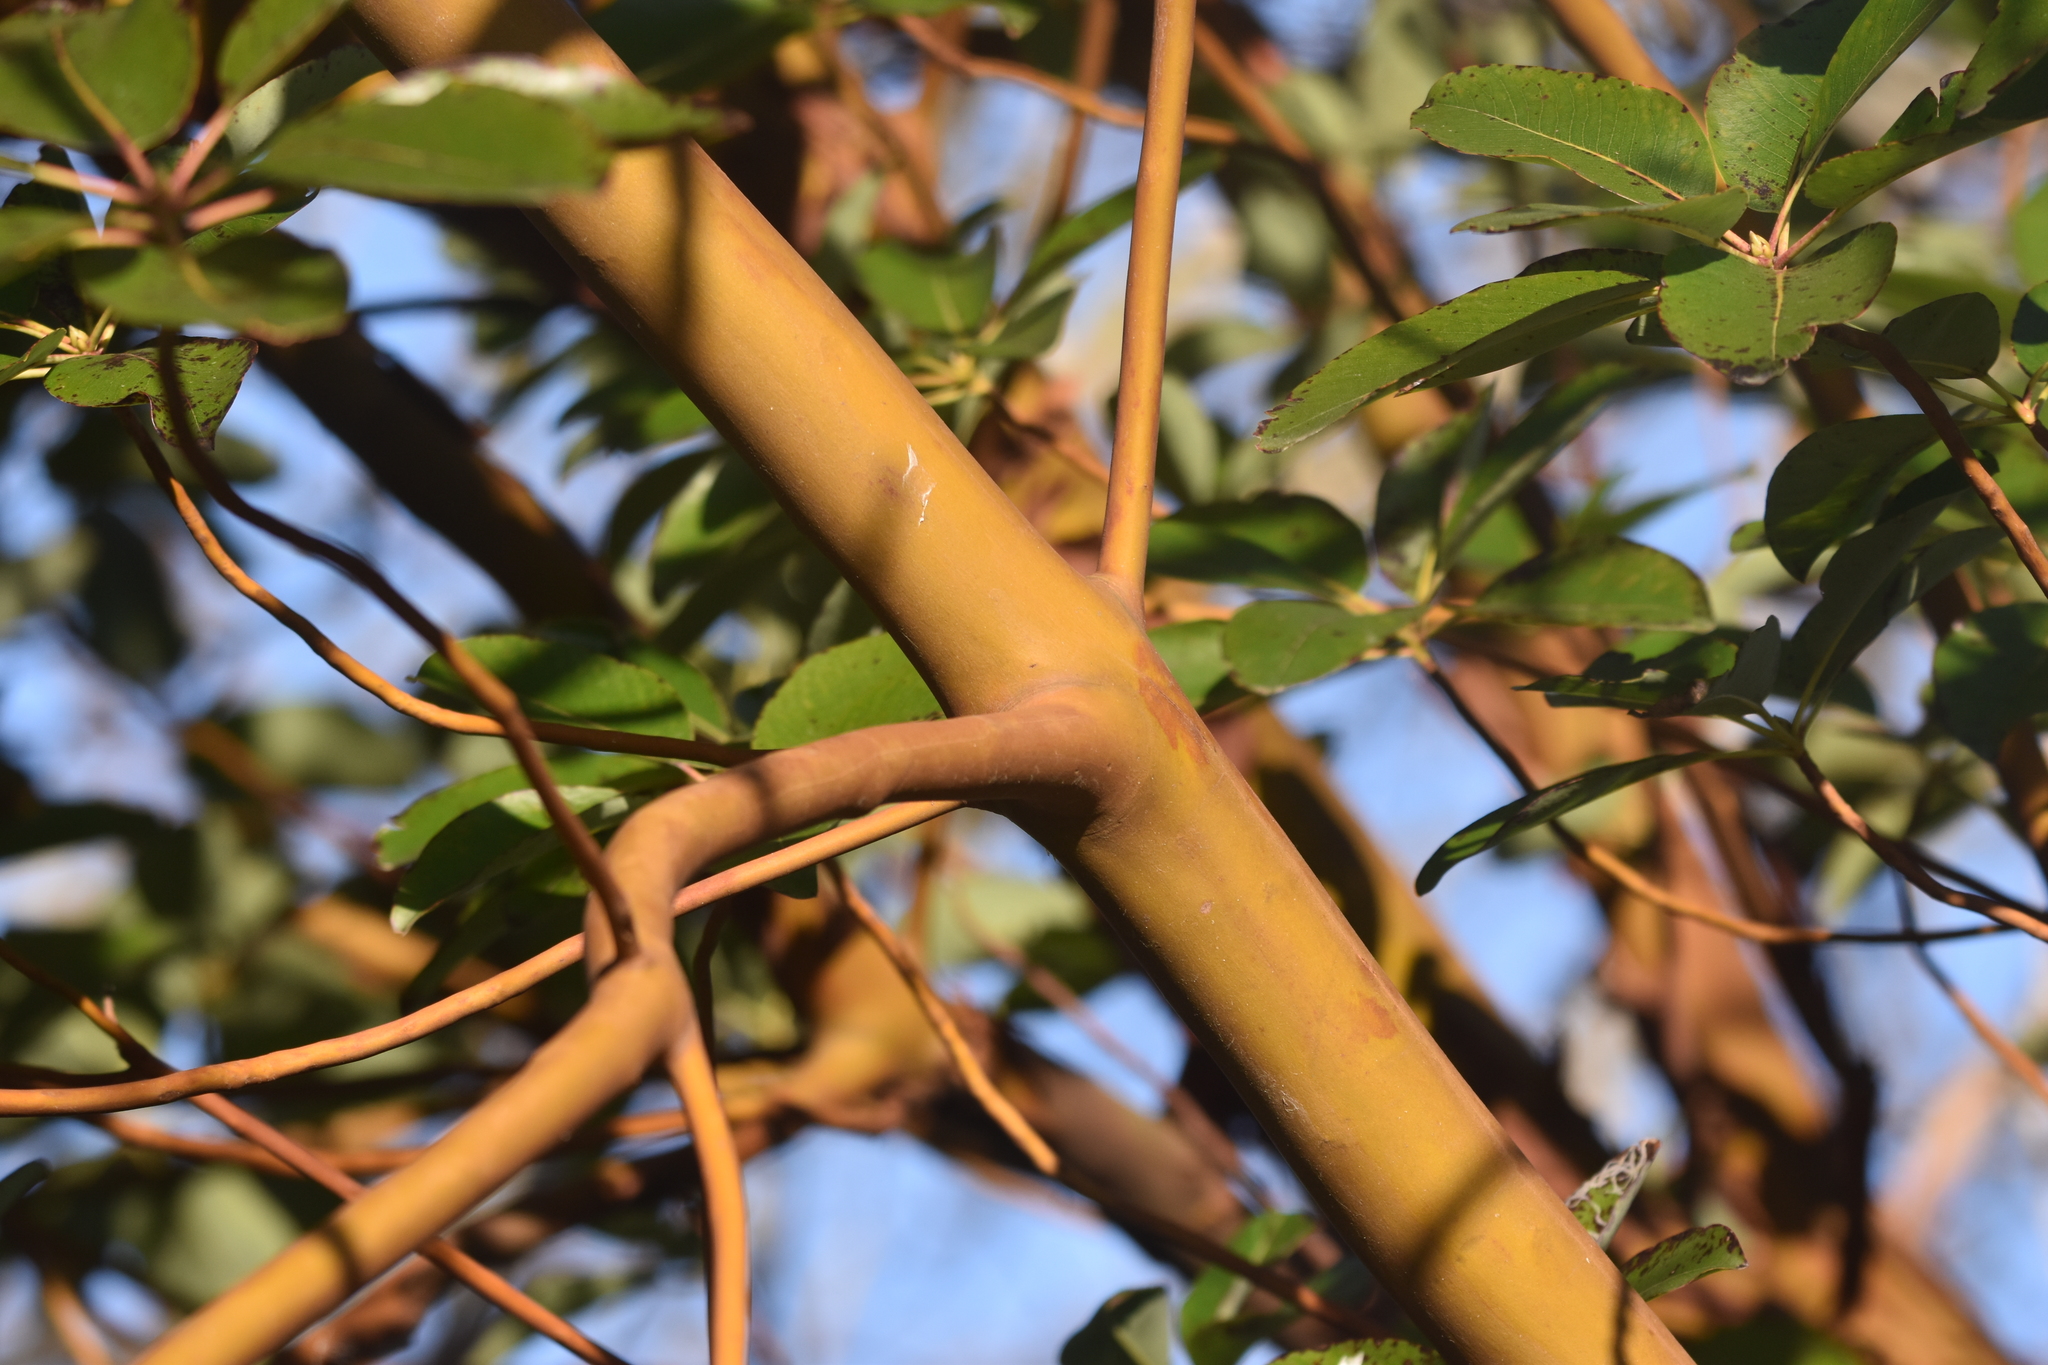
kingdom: Plantae
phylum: Tracheophyta
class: Magnoliopsida
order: Ericales
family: Ericaceae
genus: Arbutus
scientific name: Arbutus menziesii
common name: Pacific madrone
